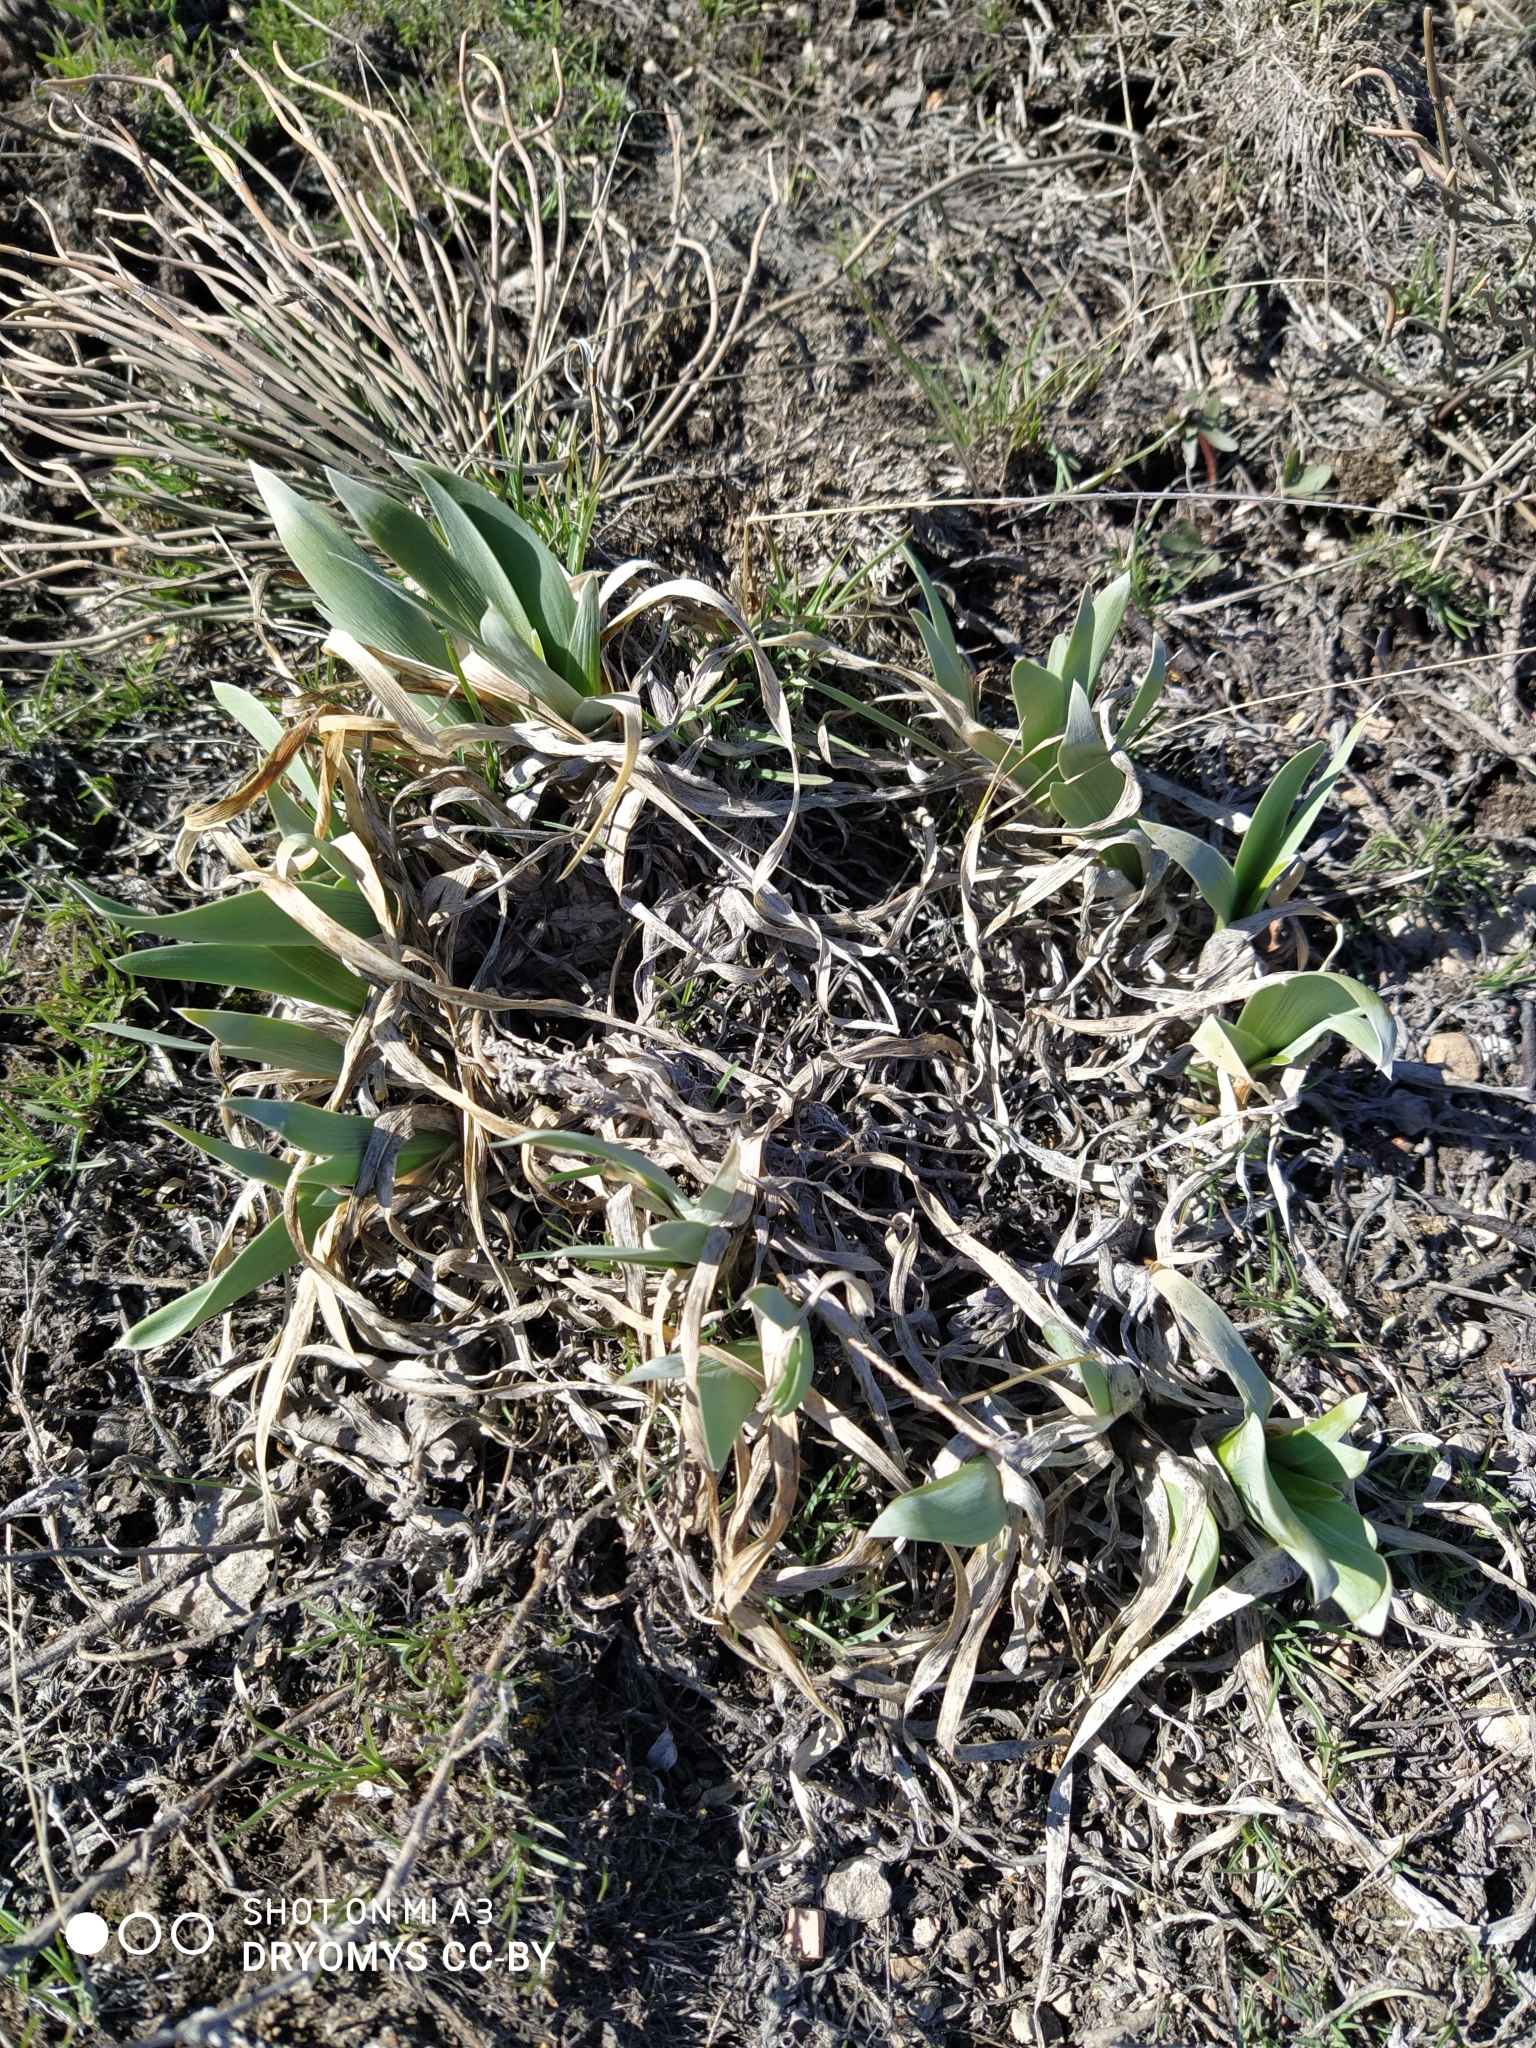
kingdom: Plantae
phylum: Tracheophyta
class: Liliopsida
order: Asparagales
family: Iridaceae
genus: Iris
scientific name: Iris glaucescens
